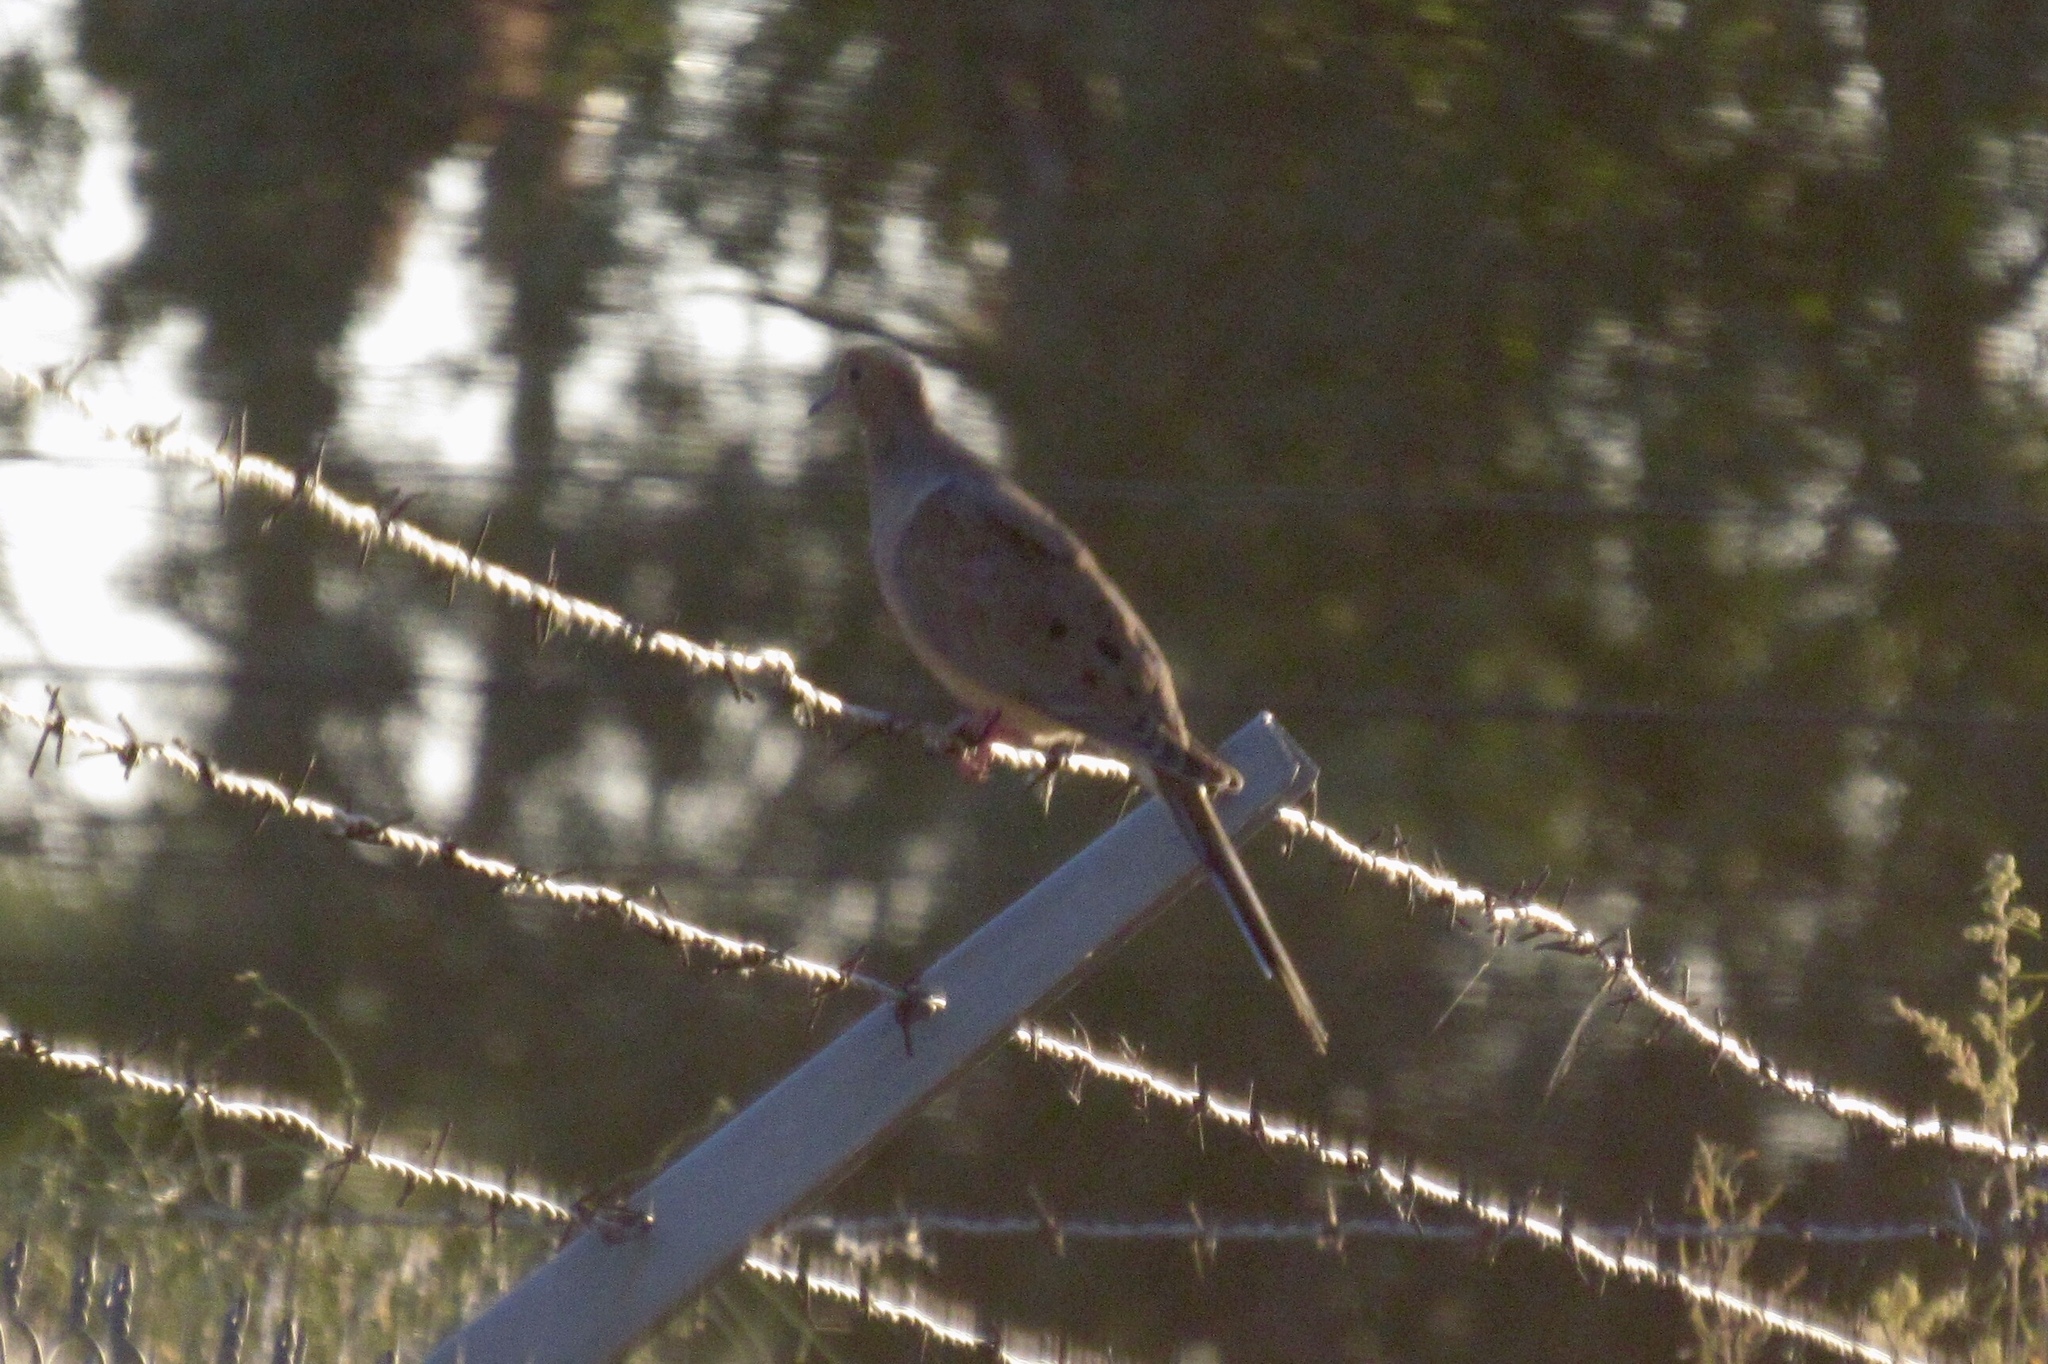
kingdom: Animalia
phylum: Chordata
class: Aves
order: Columbiformes
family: Columbidae
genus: Zenaida
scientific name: Zenaida macroura
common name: Mourning dove
